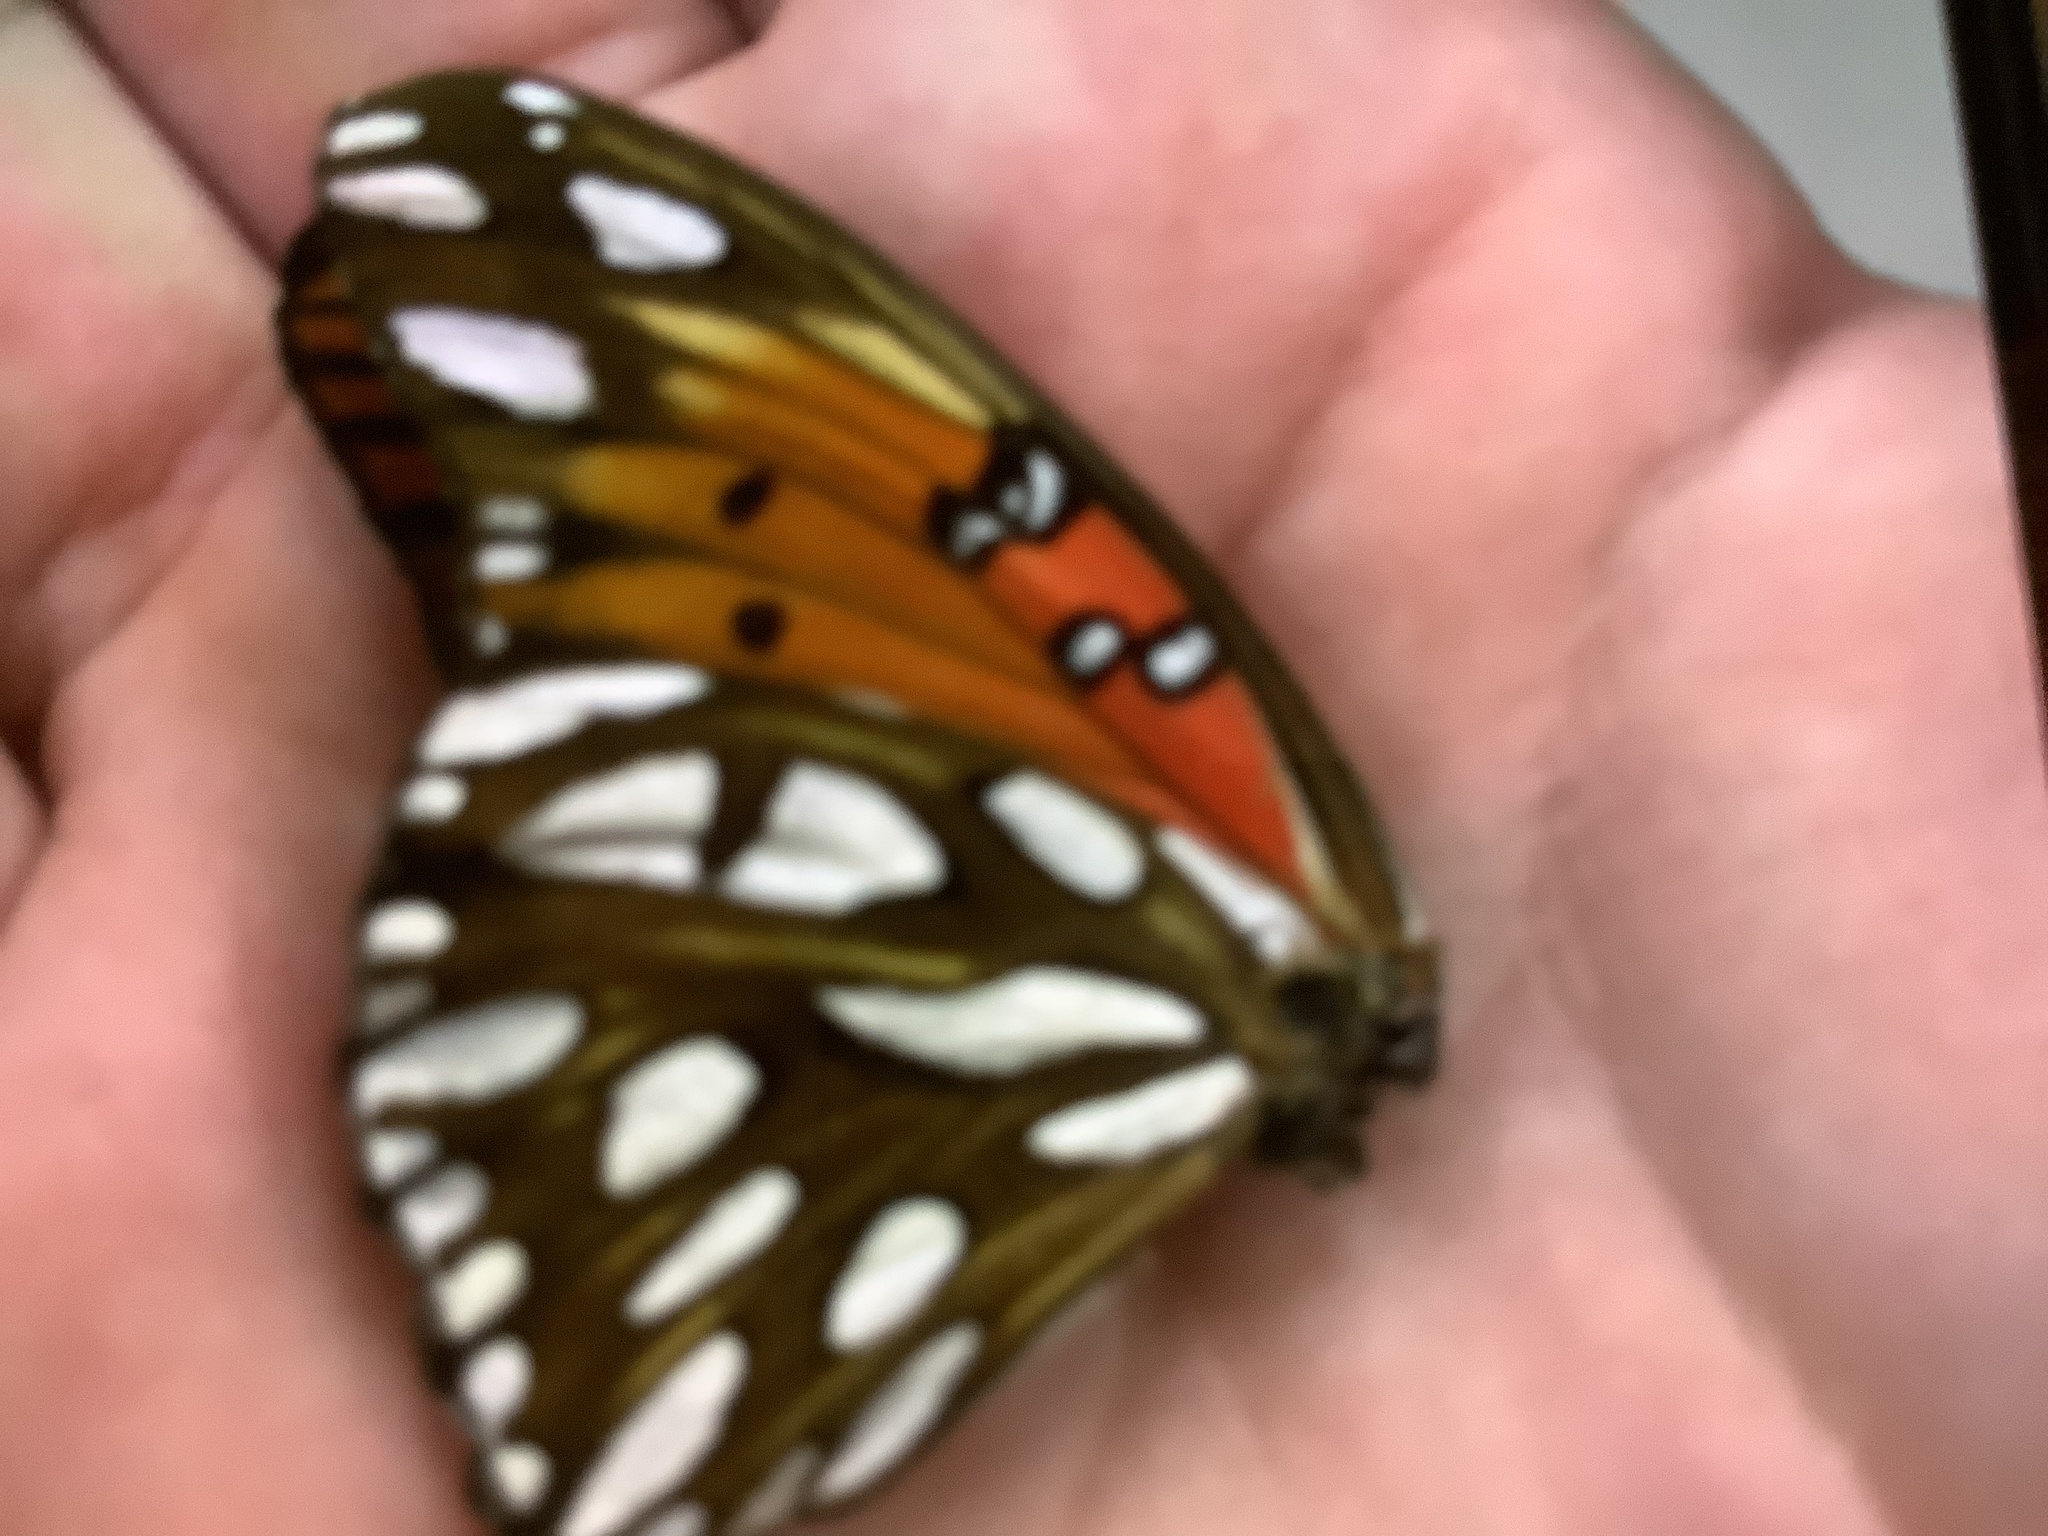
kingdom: Animalia
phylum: Arthropoda
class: Insecta
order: Lepidoptera
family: Nymphalidae
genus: Dione
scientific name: Dione vanillae
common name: Gulf fritillary
